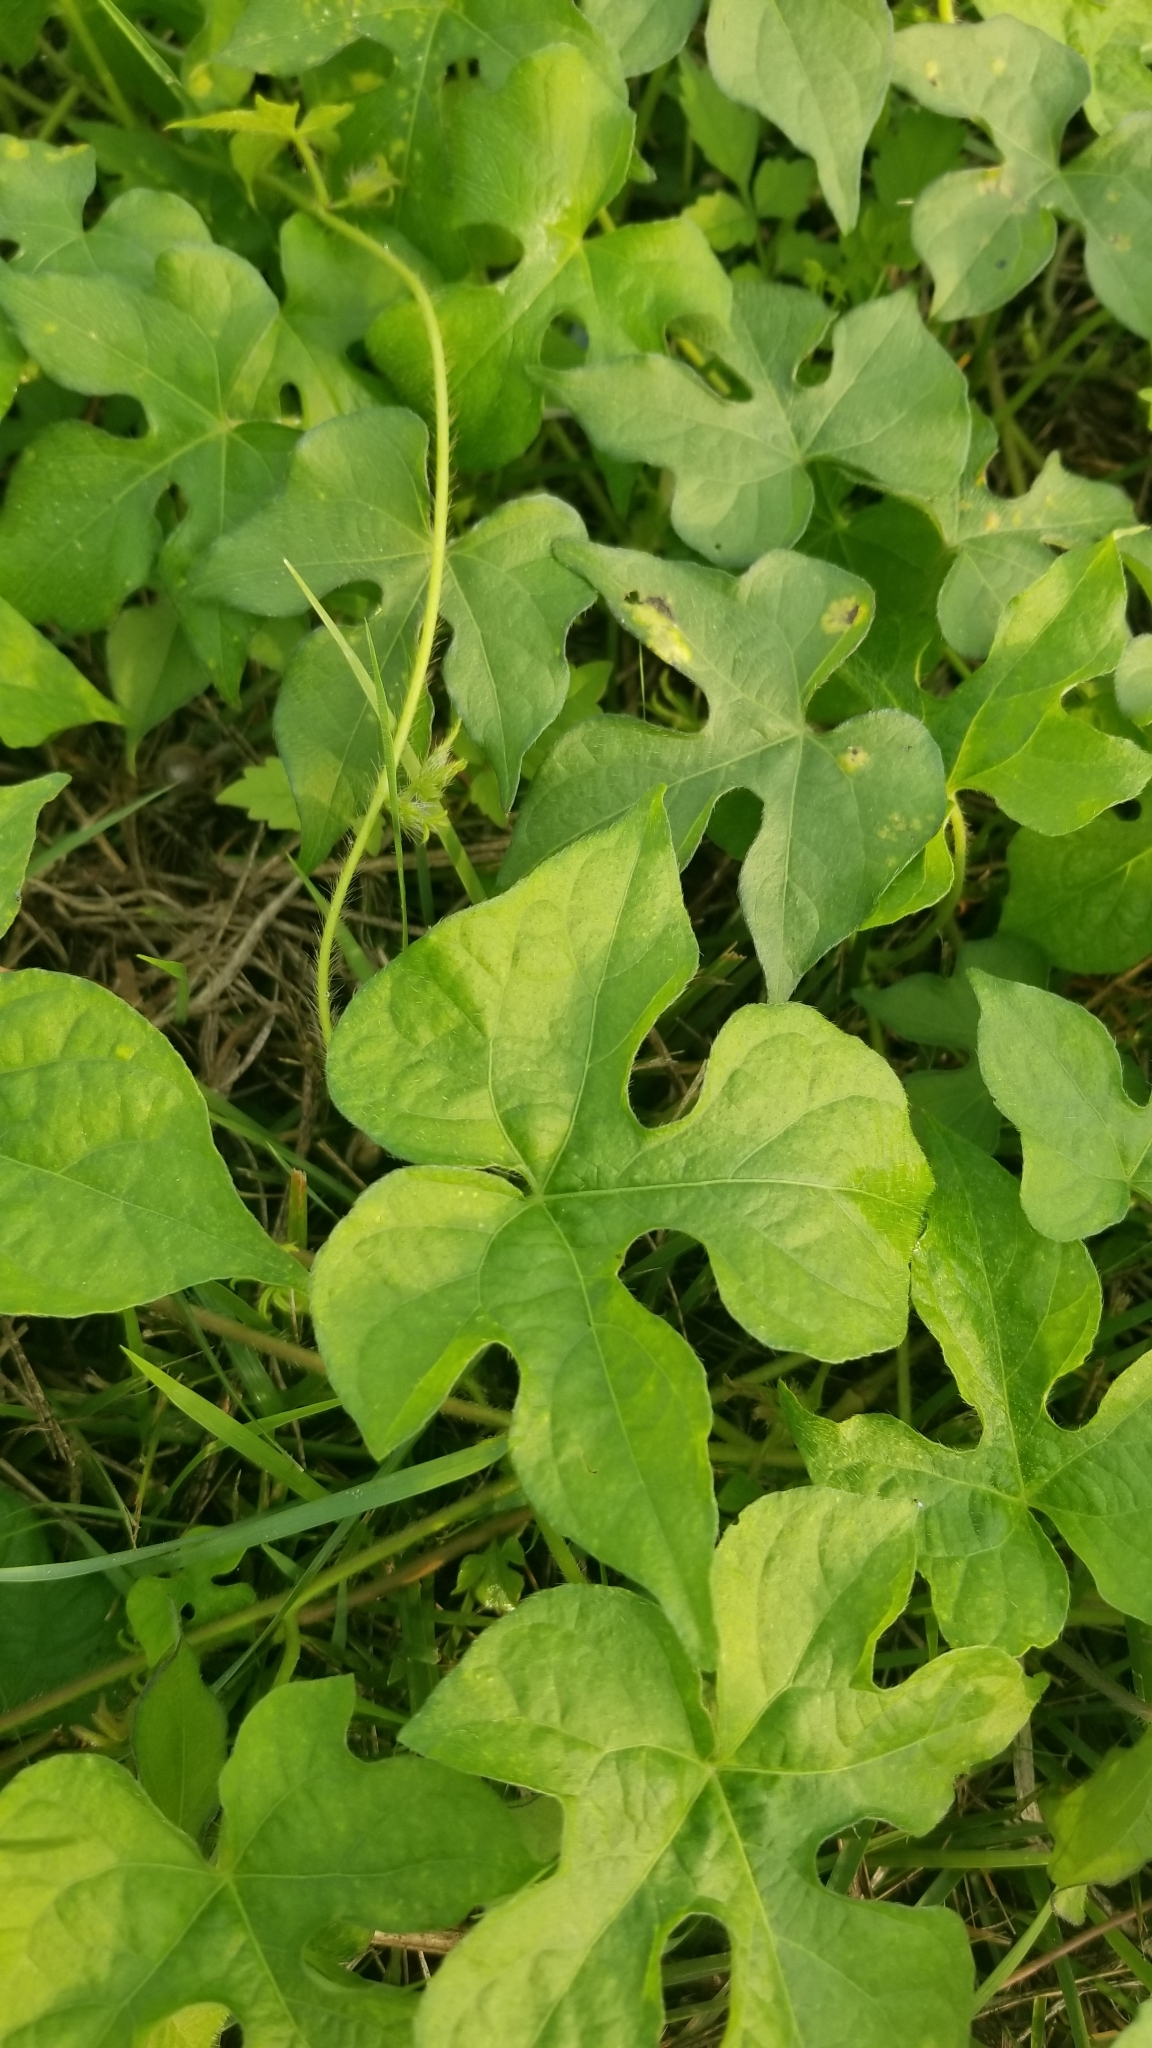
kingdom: Plantae
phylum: Tracheophyta
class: Magnoliopsida
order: Solanales
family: Convolvulaceae
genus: Ipomoea
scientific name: Ipomoea hederacea
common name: Ivy-leaved morning-glory
